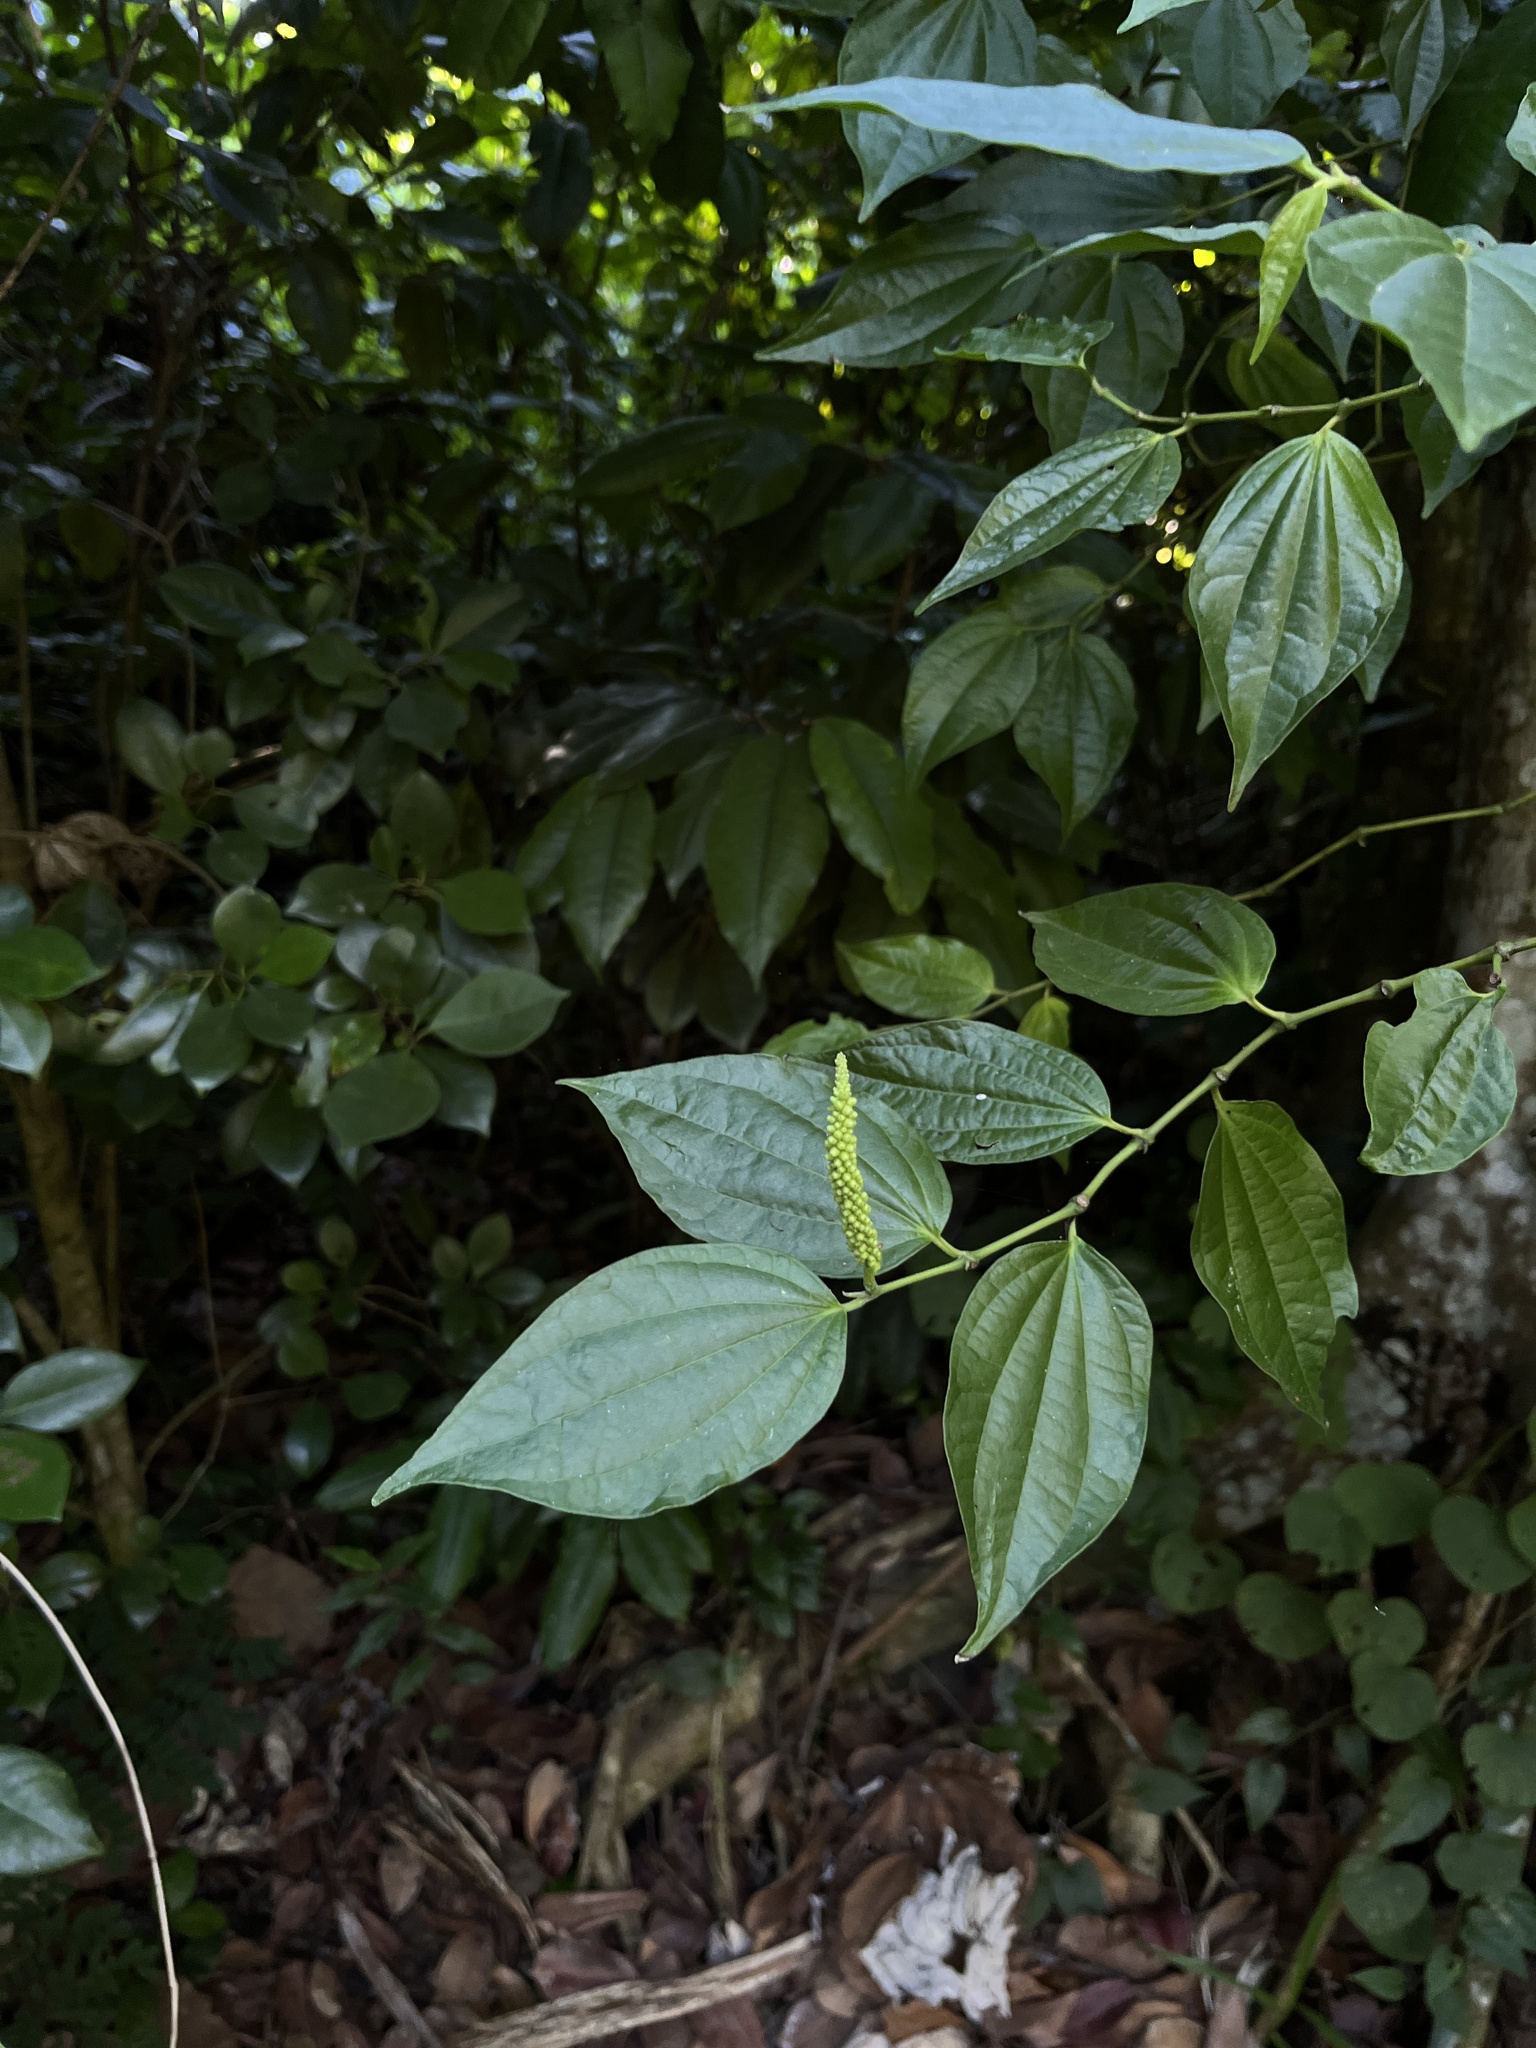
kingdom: Plantae
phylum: Tracheophyta
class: Magnoliopsida
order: Piperales
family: Piperaceae
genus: Piper
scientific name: Piper amalago
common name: Pepper-elder
